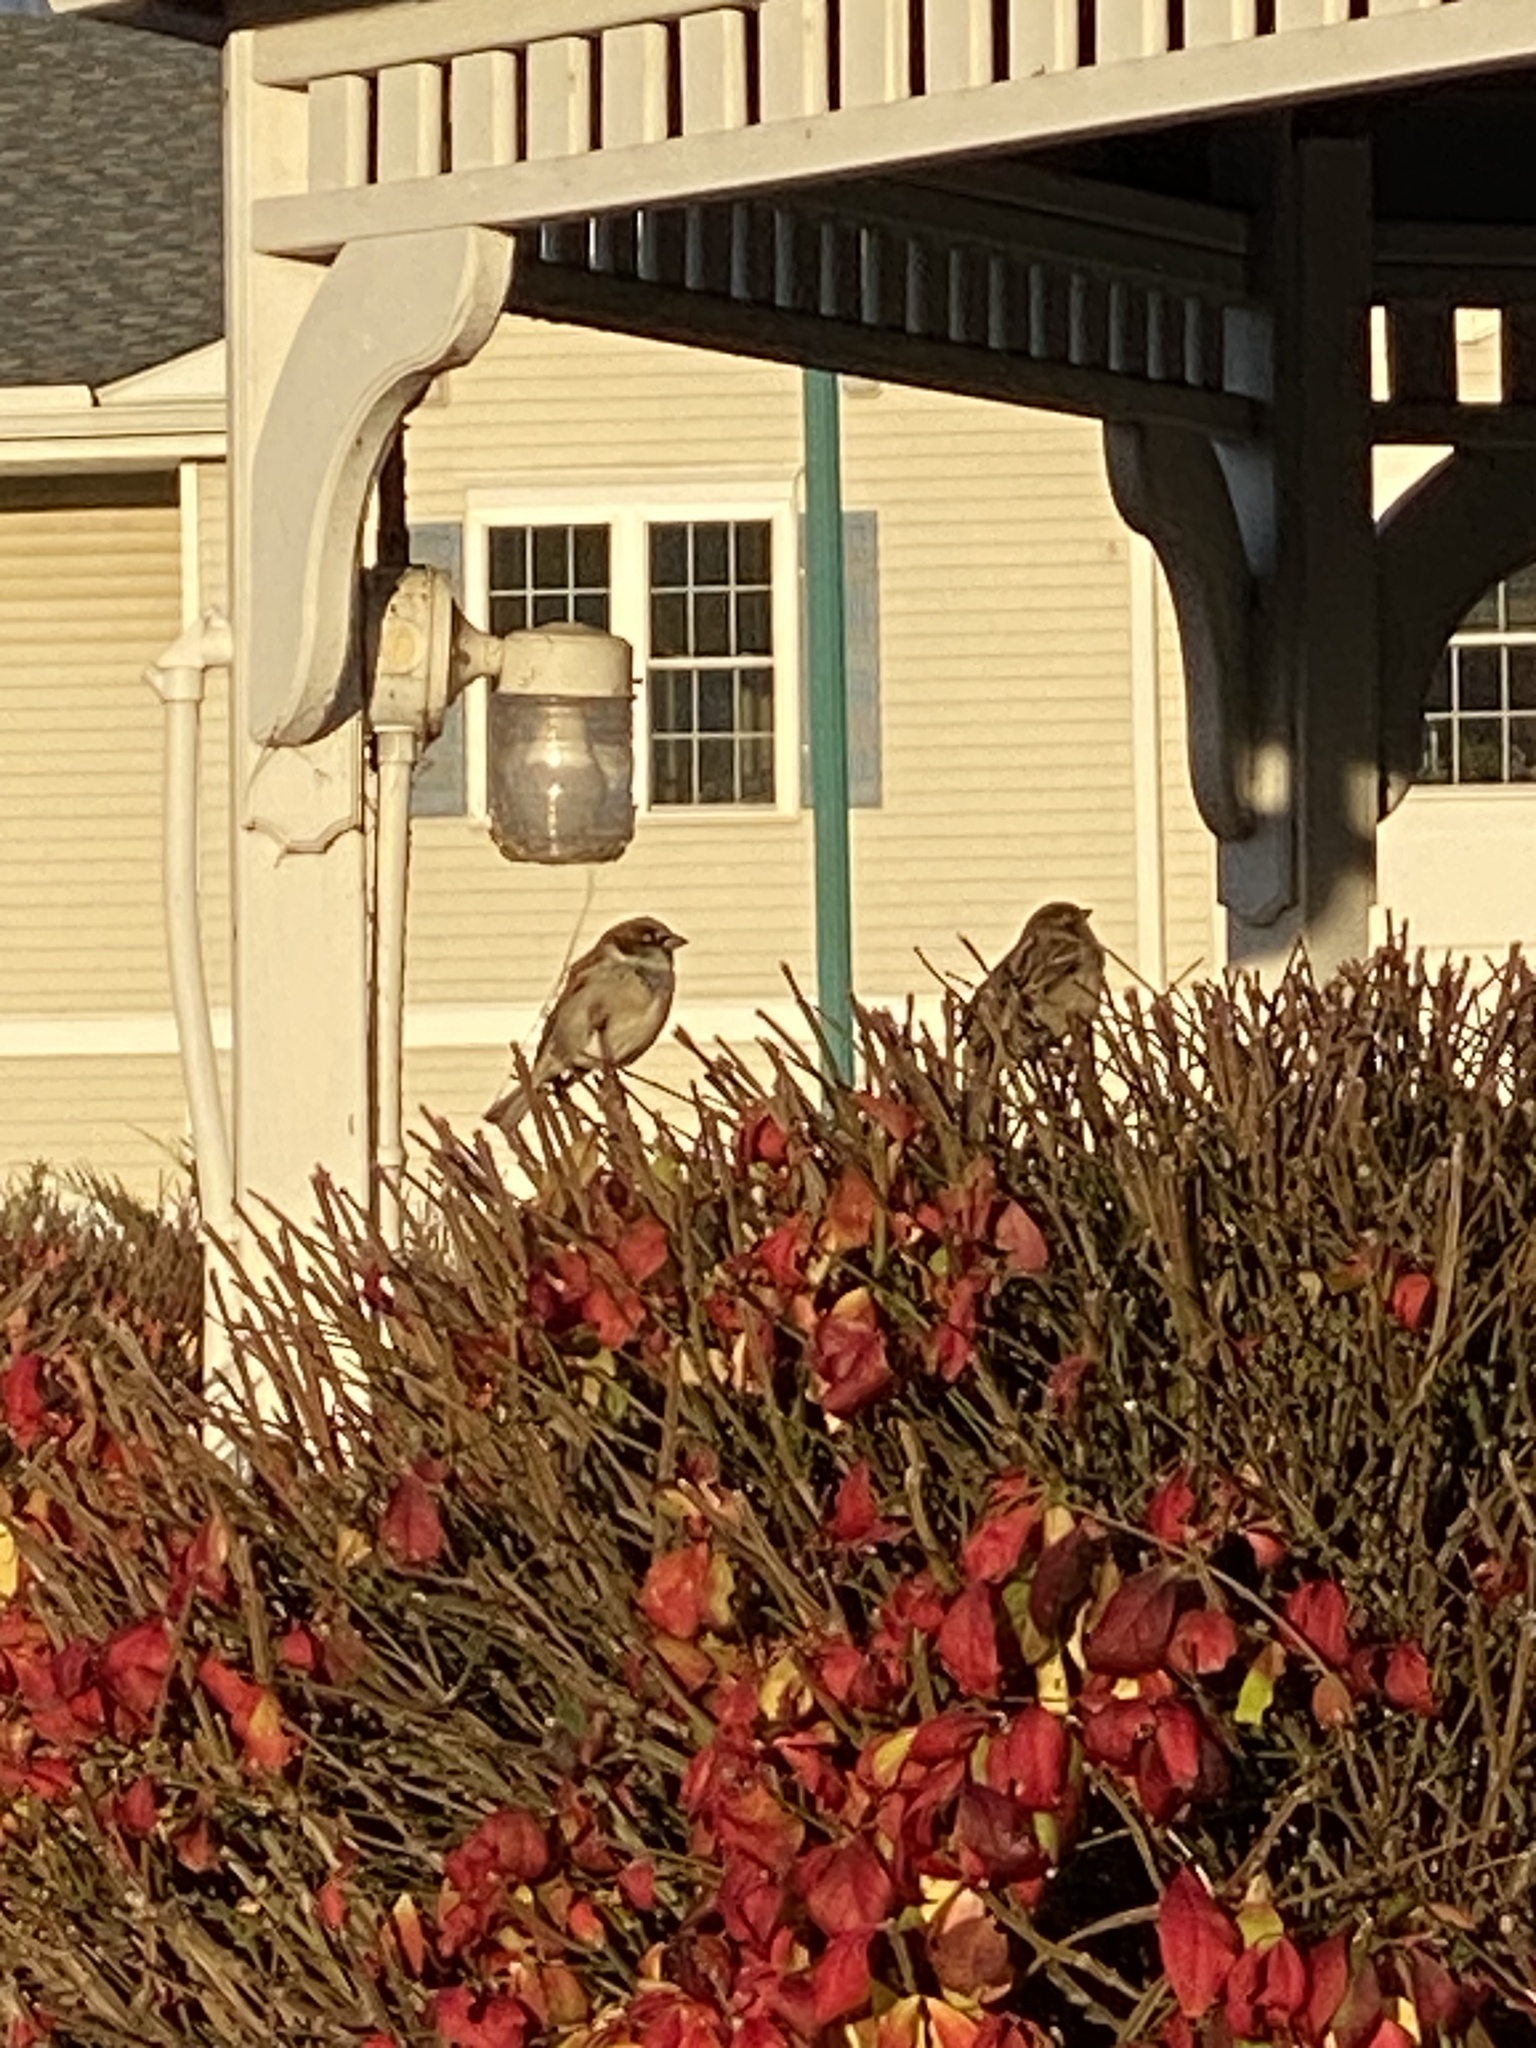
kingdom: Animalia
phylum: Chordata
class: Aves
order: Passeriformes
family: Passeridae
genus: Passer
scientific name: Passer domesticus
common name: House sparrow
